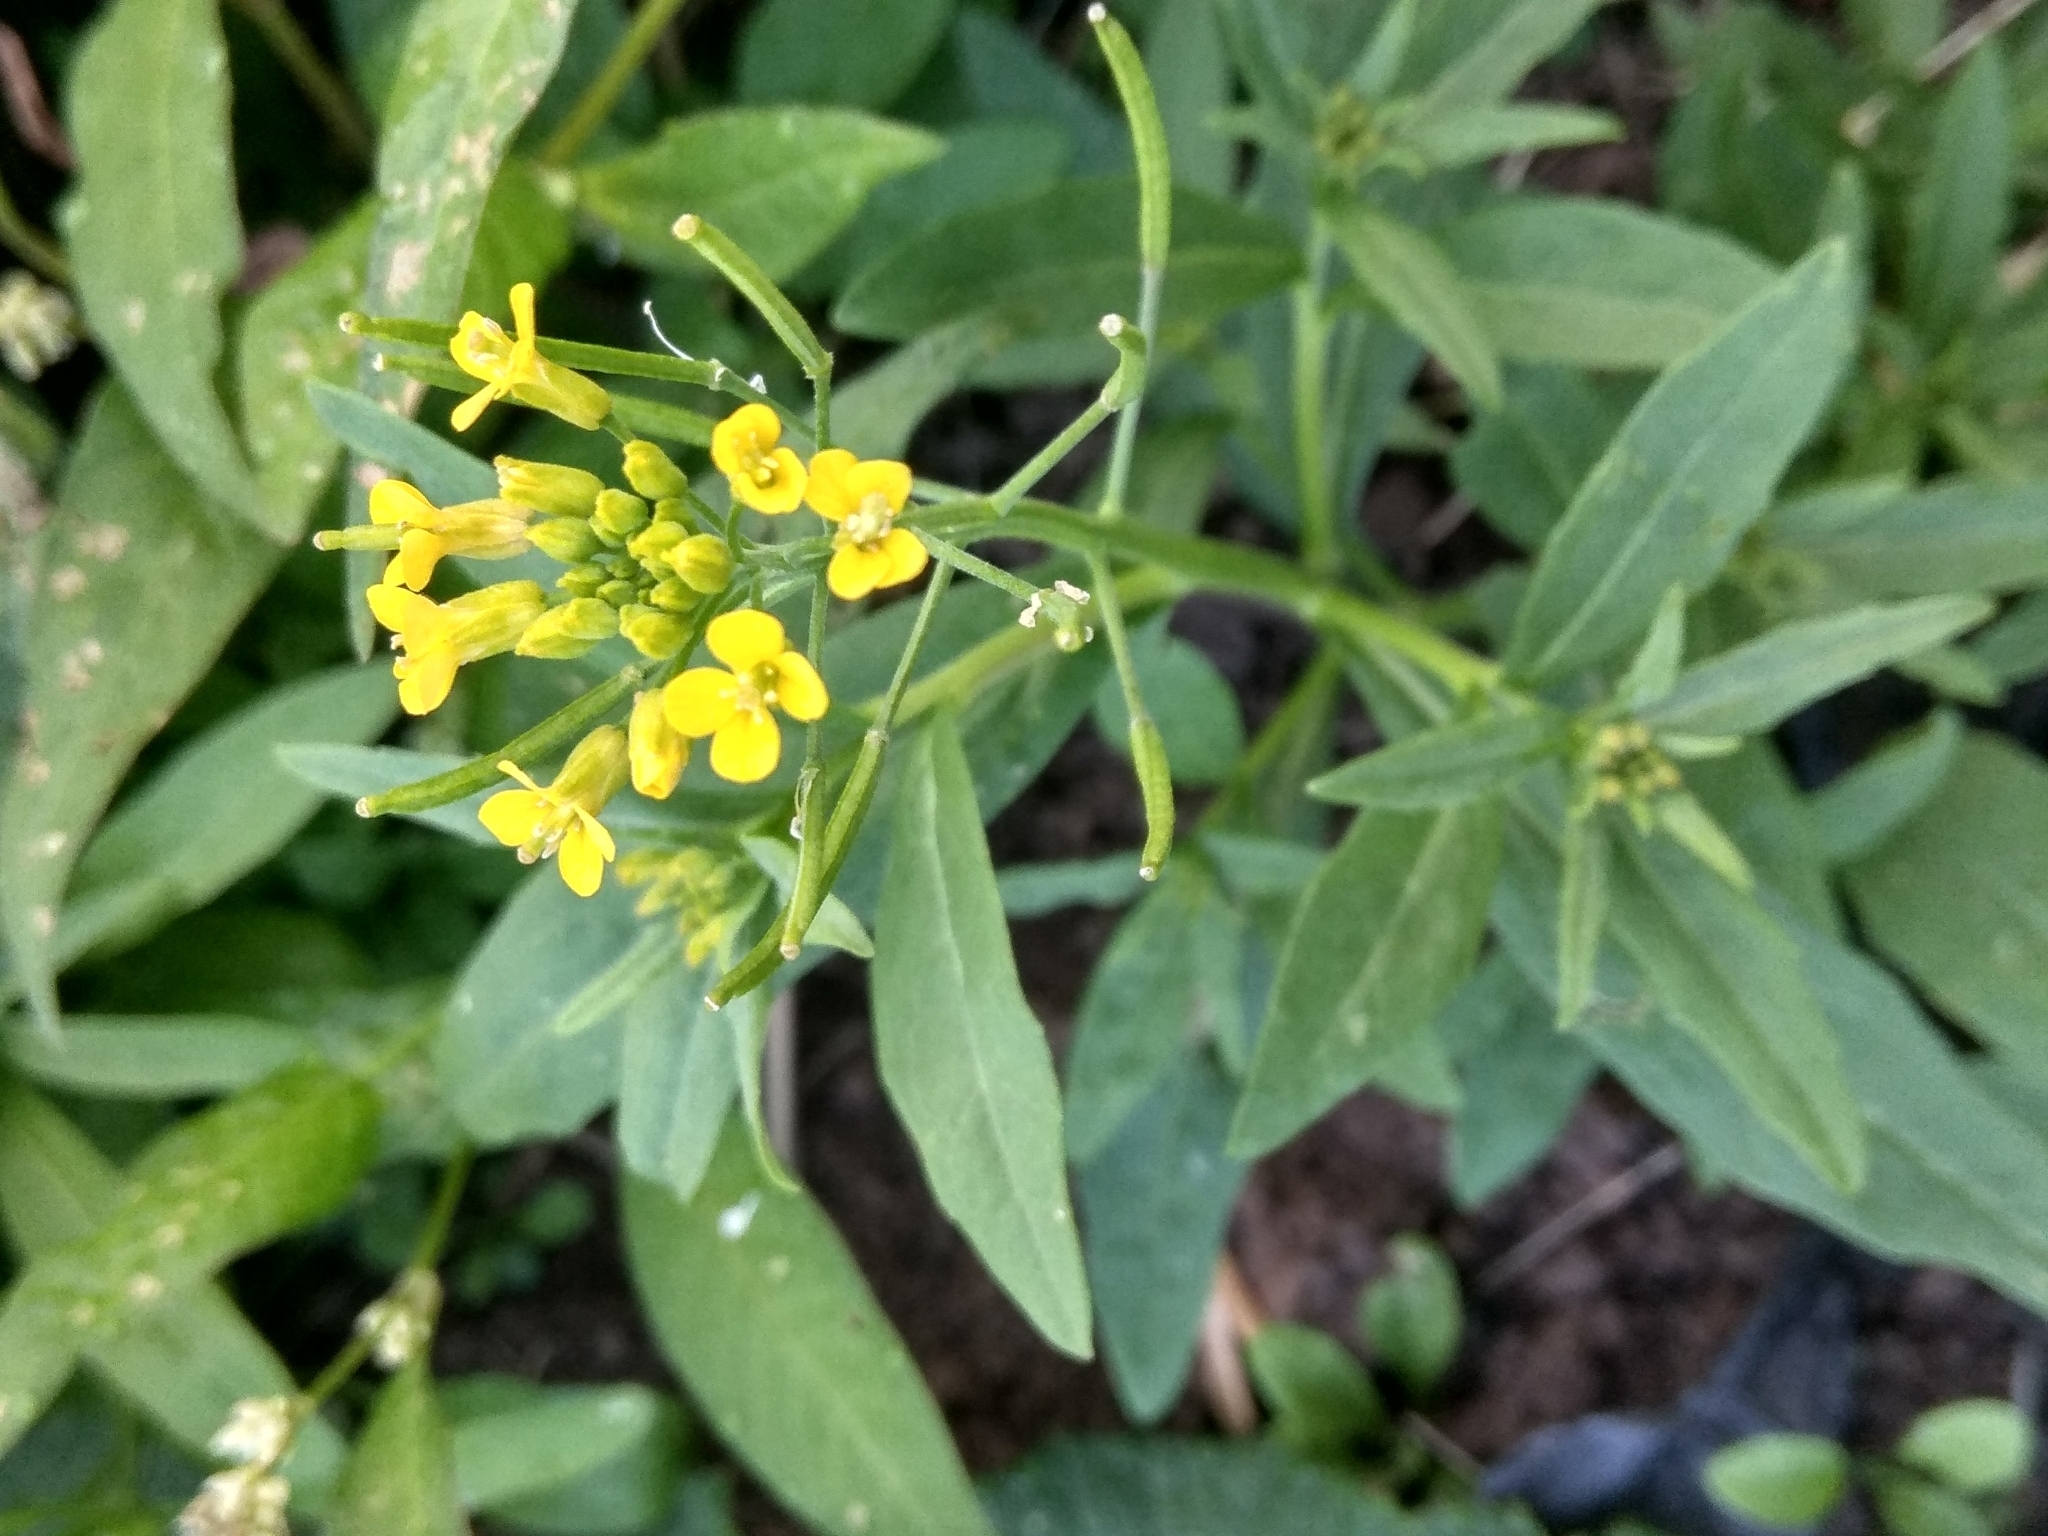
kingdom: Plantae
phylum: Tracheophyta
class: Magnoliopsida
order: Brassicales
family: Brassicaceae
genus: Erysimum
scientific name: Erysimum cheiranthoides
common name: Treacle mustard
